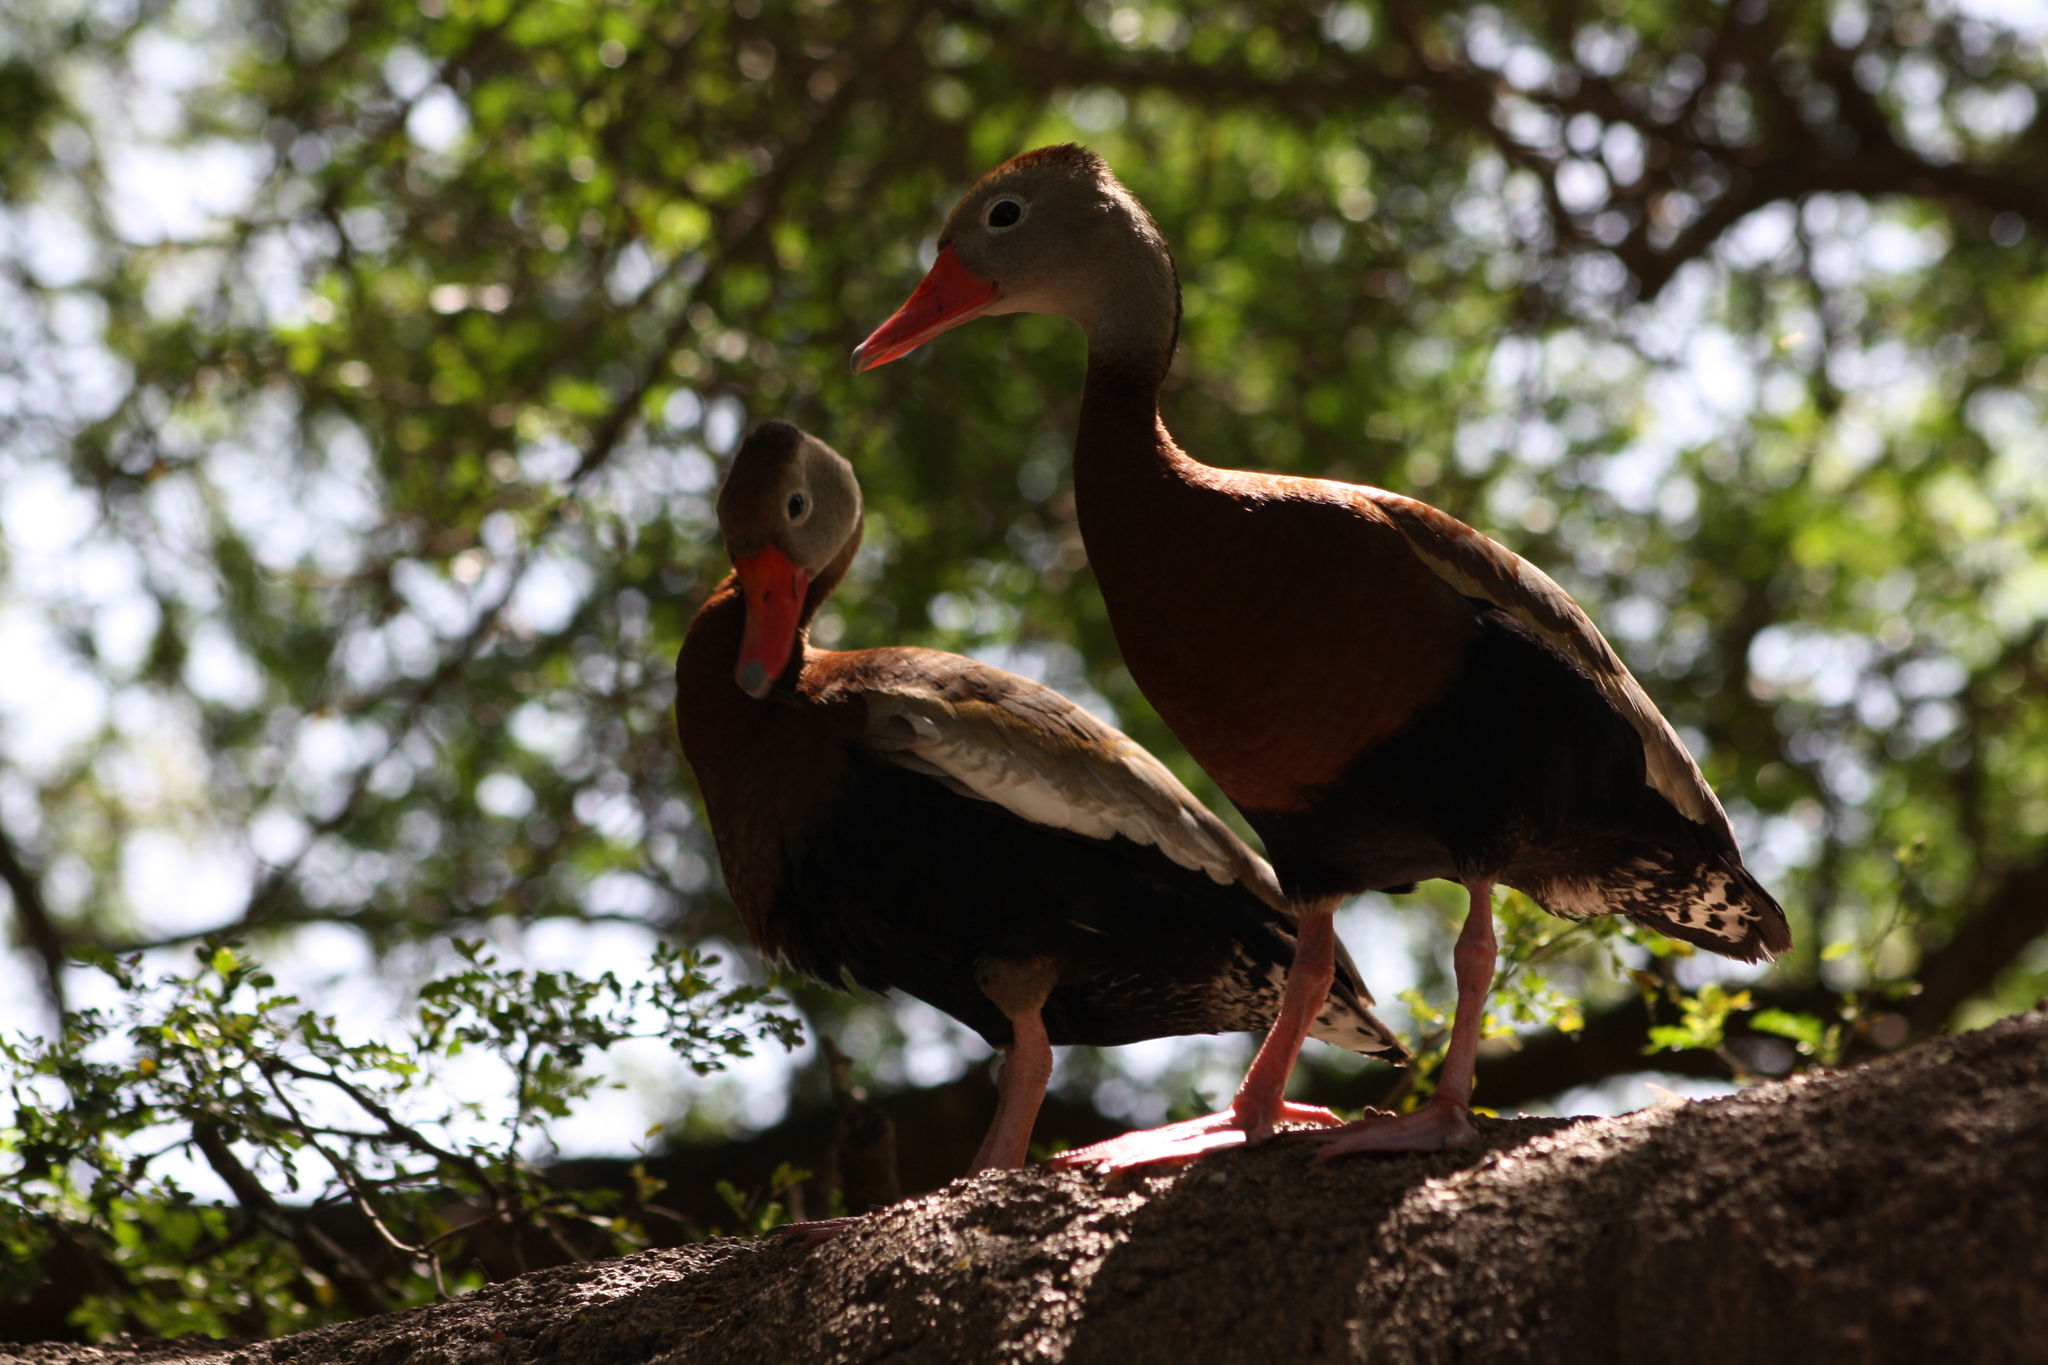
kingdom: Animalia
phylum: Chordata
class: Aves
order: Anseriformes
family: Anatidae
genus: Dendrocygna
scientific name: Dendrocygna autumnalis
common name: Black-bellied whistling duck
